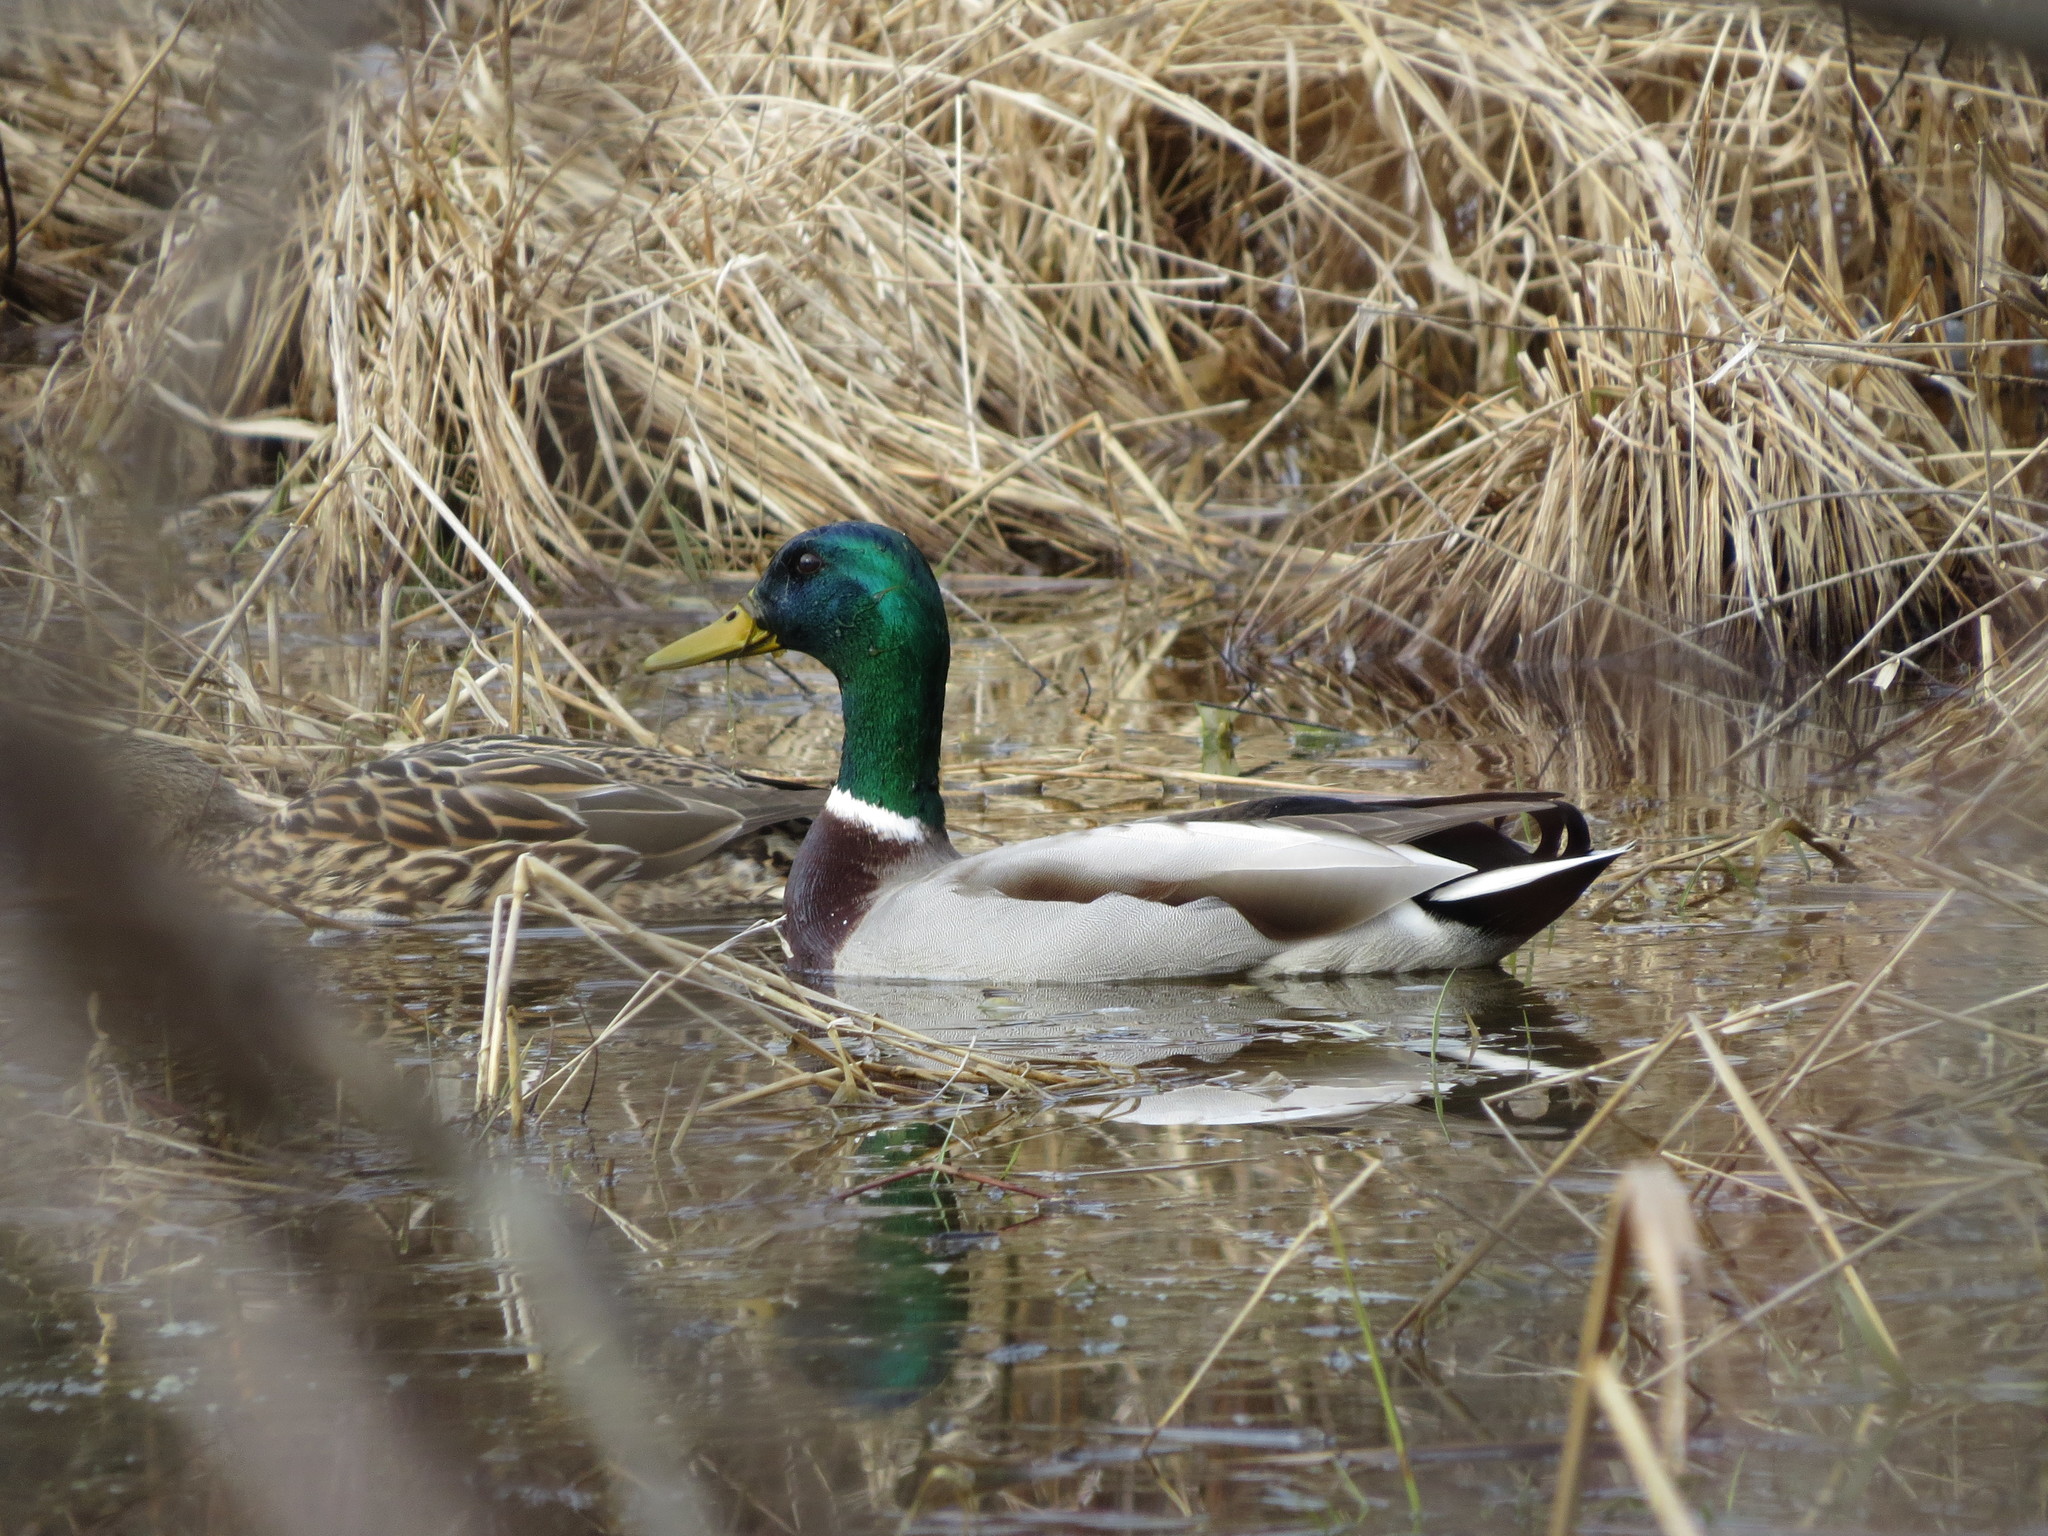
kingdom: Animalia
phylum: Chordata
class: Aves
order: Anseriformes
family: Anatidae
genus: Anas
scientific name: Anas platyrhynchos
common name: Mallard
